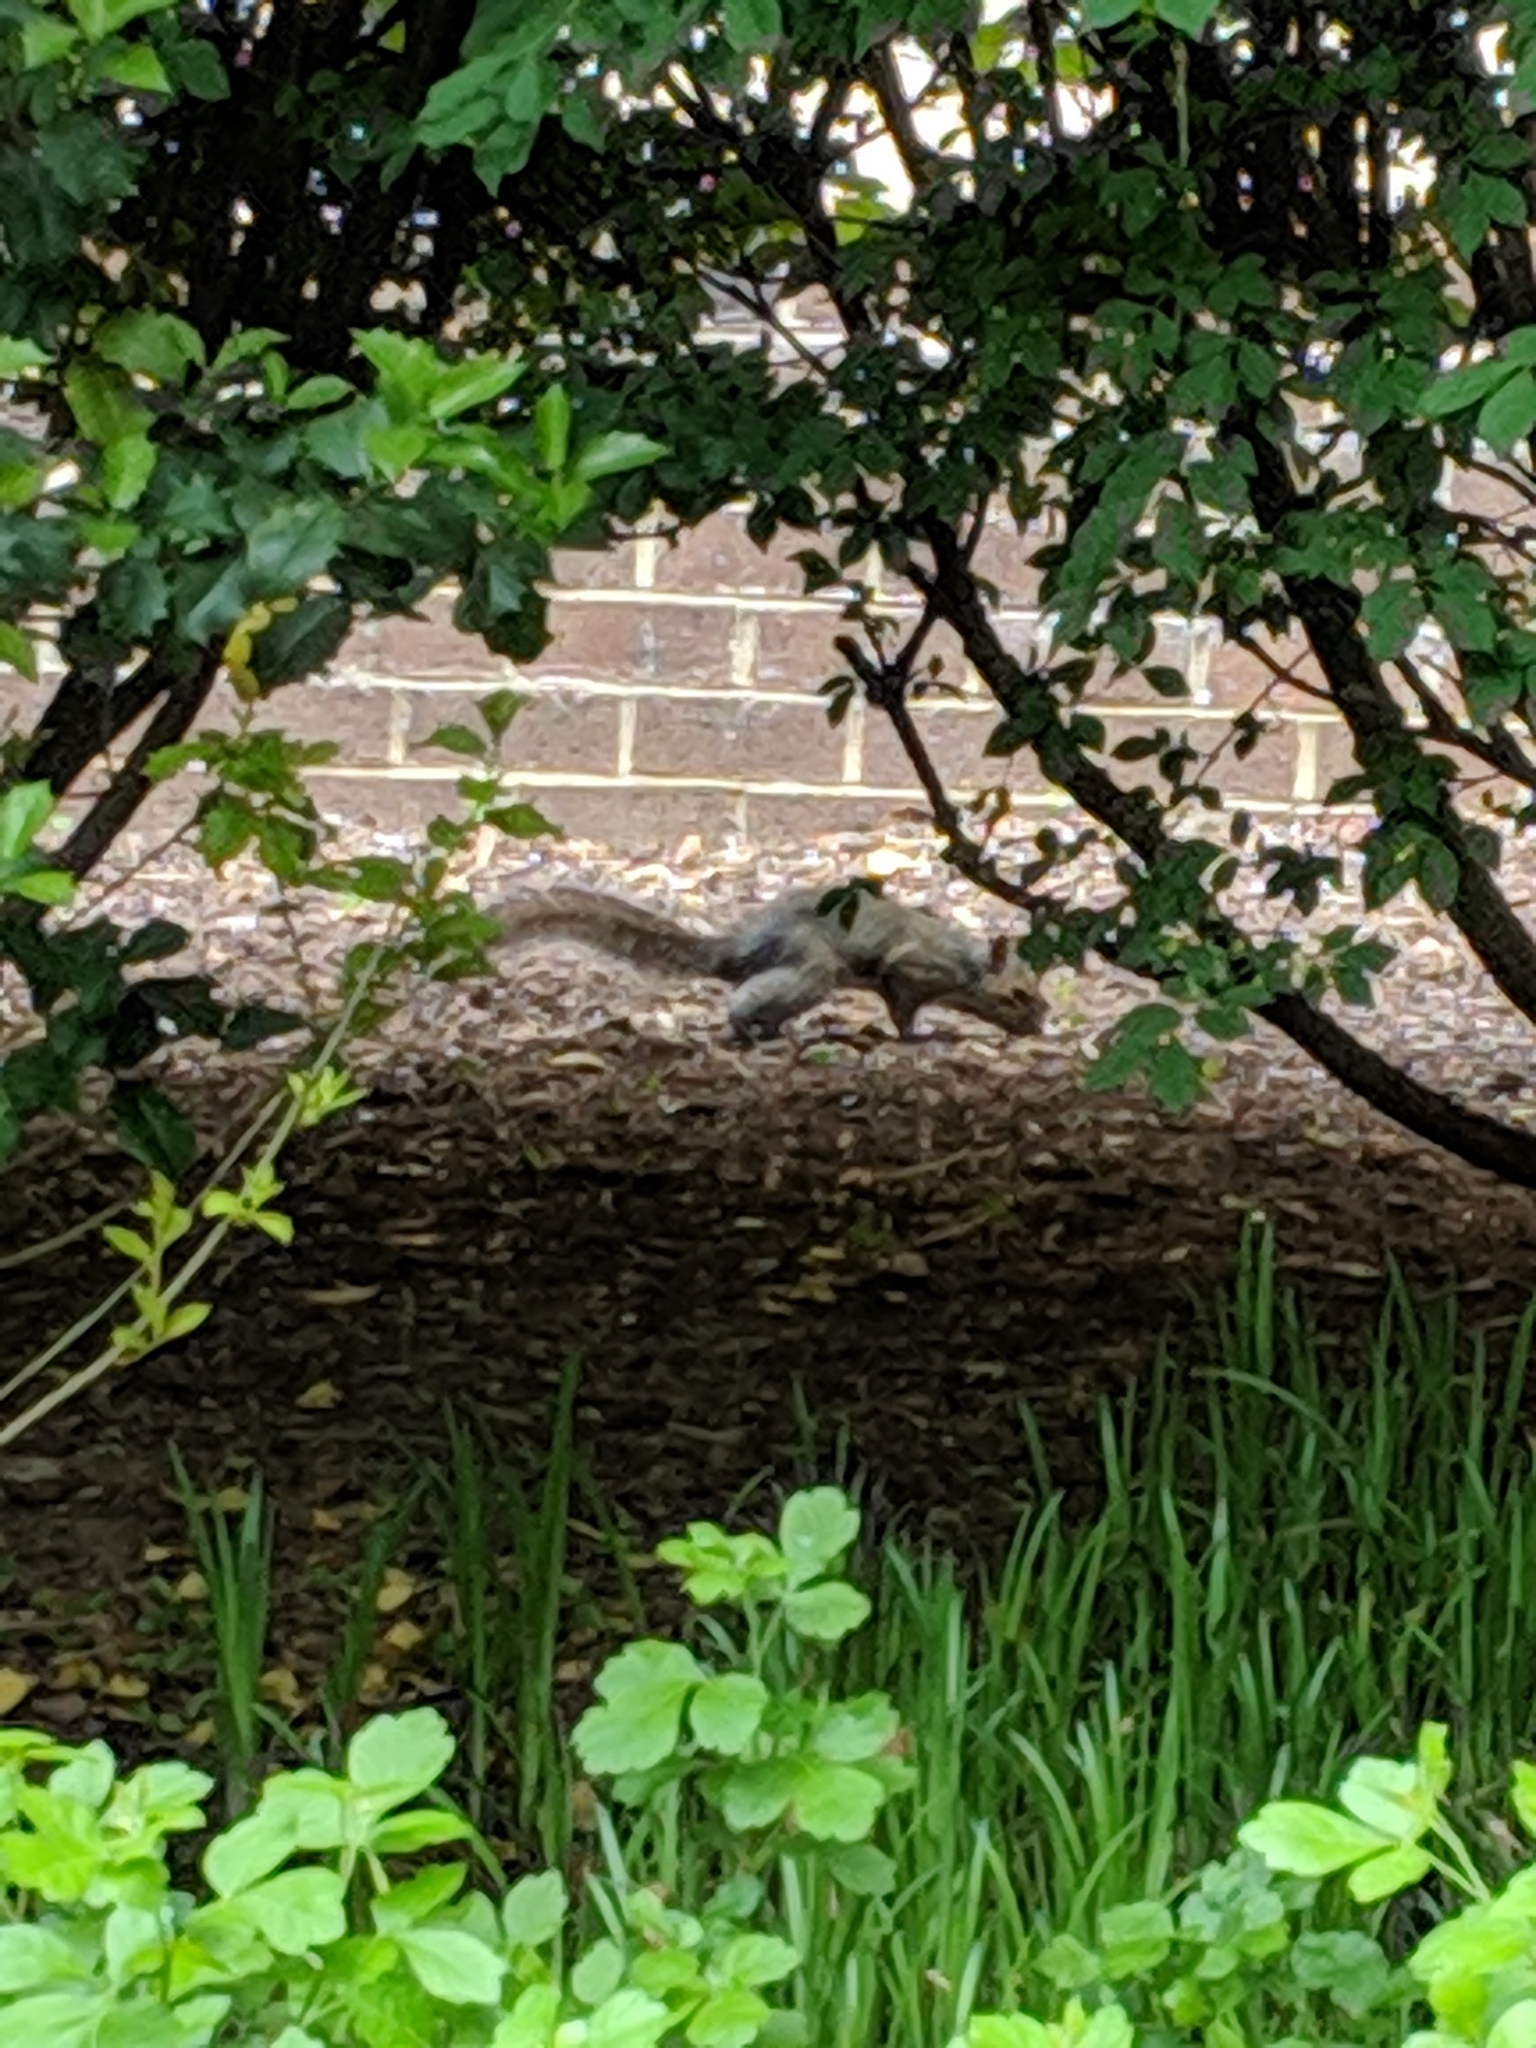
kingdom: Animalia
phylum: Chordata
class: Mammalia
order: Rodentia
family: Sciuridae
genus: Sciurus
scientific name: Sciurus carolinensis
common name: Eastern gray squirrel
